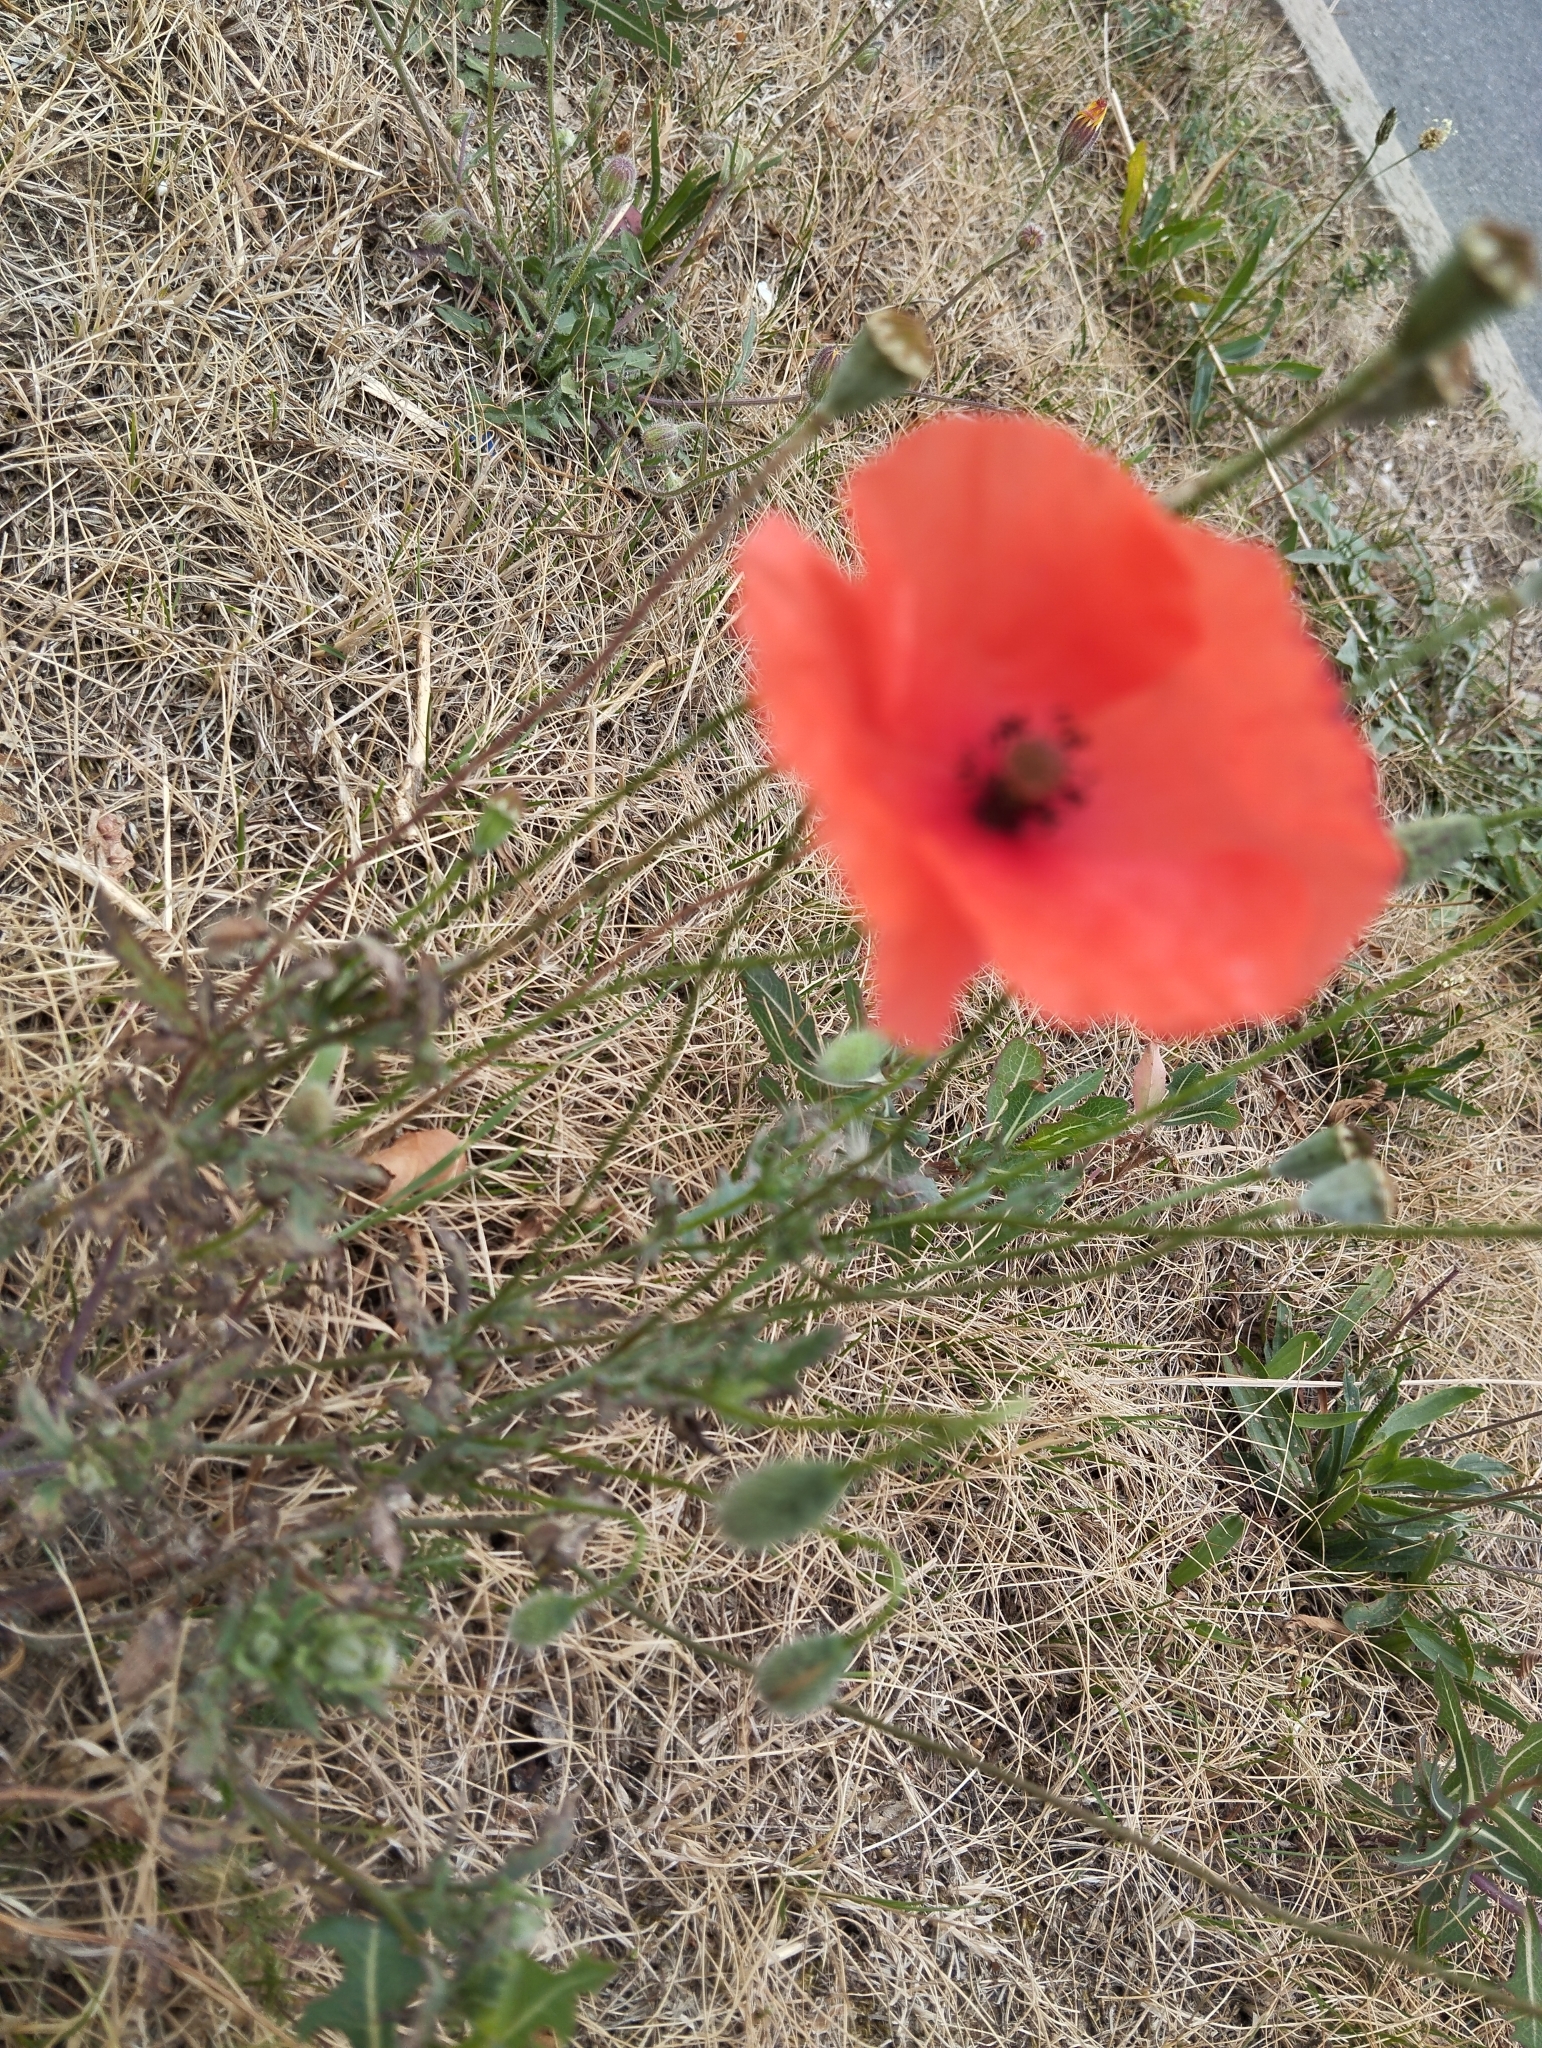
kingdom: Plantae
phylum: Tracheophyta
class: Magnoliopsida
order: Ranunculales
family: Papaveraceae
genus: Papaver
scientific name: Papaver rhoeas
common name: Corn poppy
